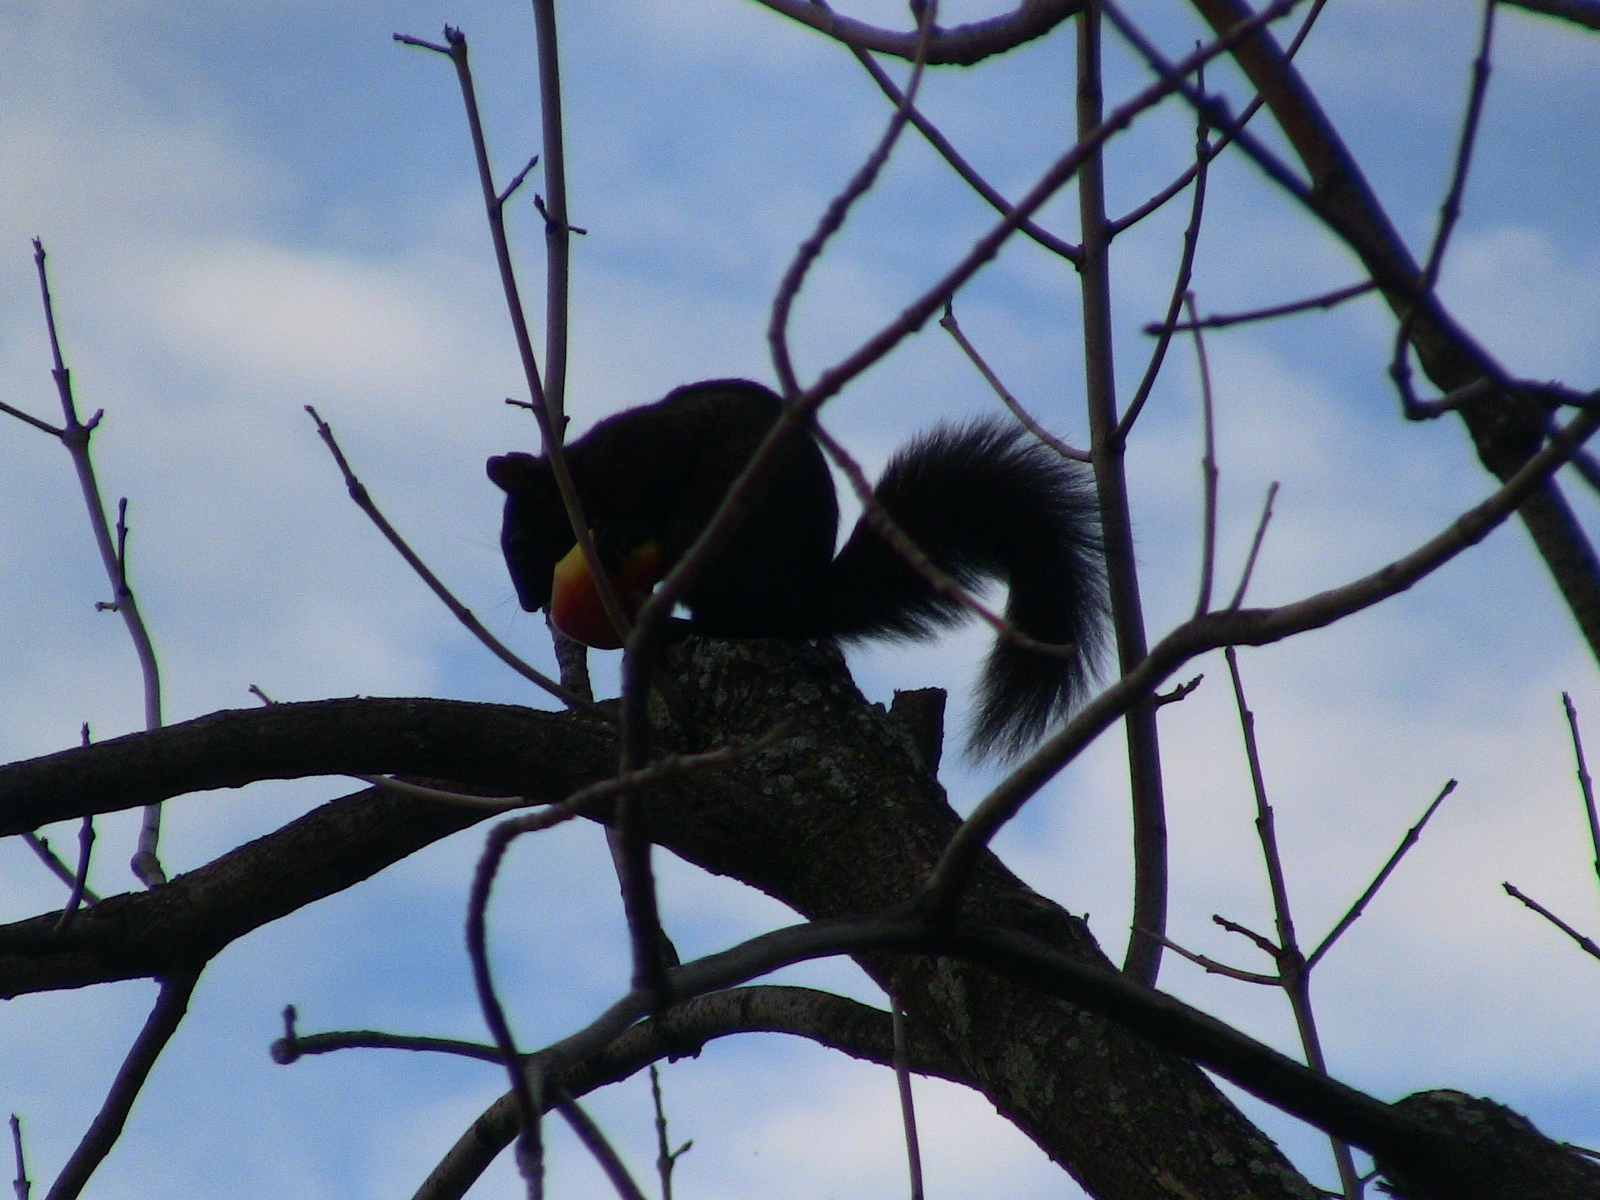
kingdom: Animalia
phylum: Chordata
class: Mammalia
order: Rodentia
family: Sciuridae
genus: Sciurus
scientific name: Sciurus carolinensis
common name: Eastern gray squirrel
